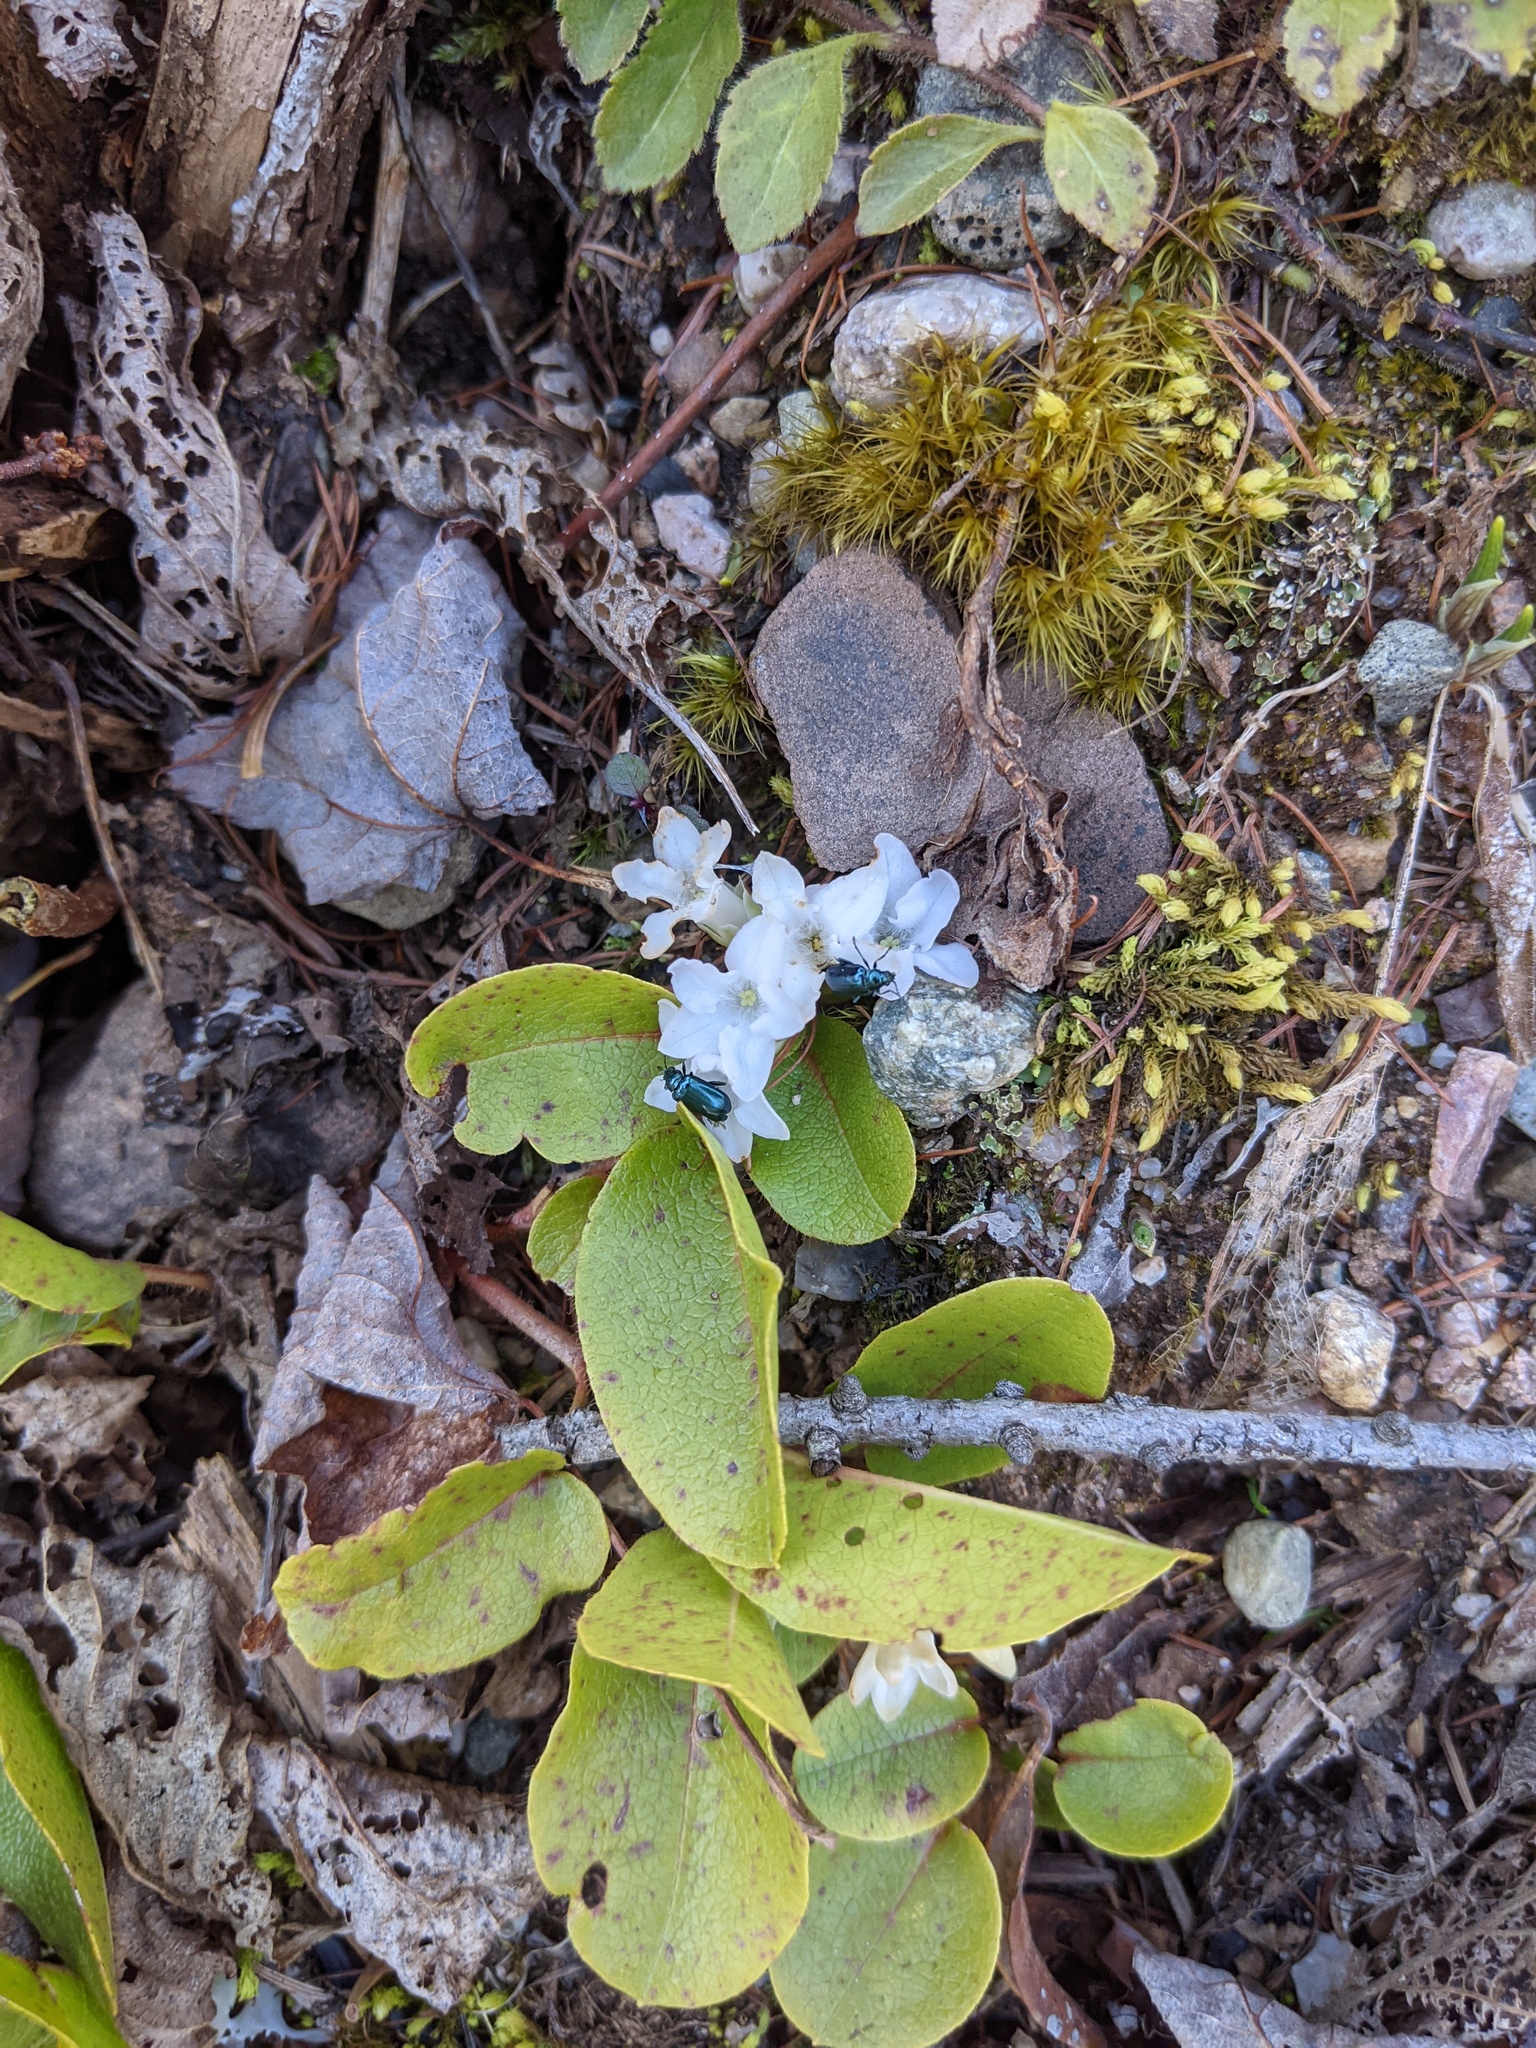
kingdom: Plantae
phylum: Tracheophyta
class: Magnoliopsida
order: Ericales
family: Ericaceae
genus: Epigaea
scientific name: Epigaea repens
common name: Gravelroot
